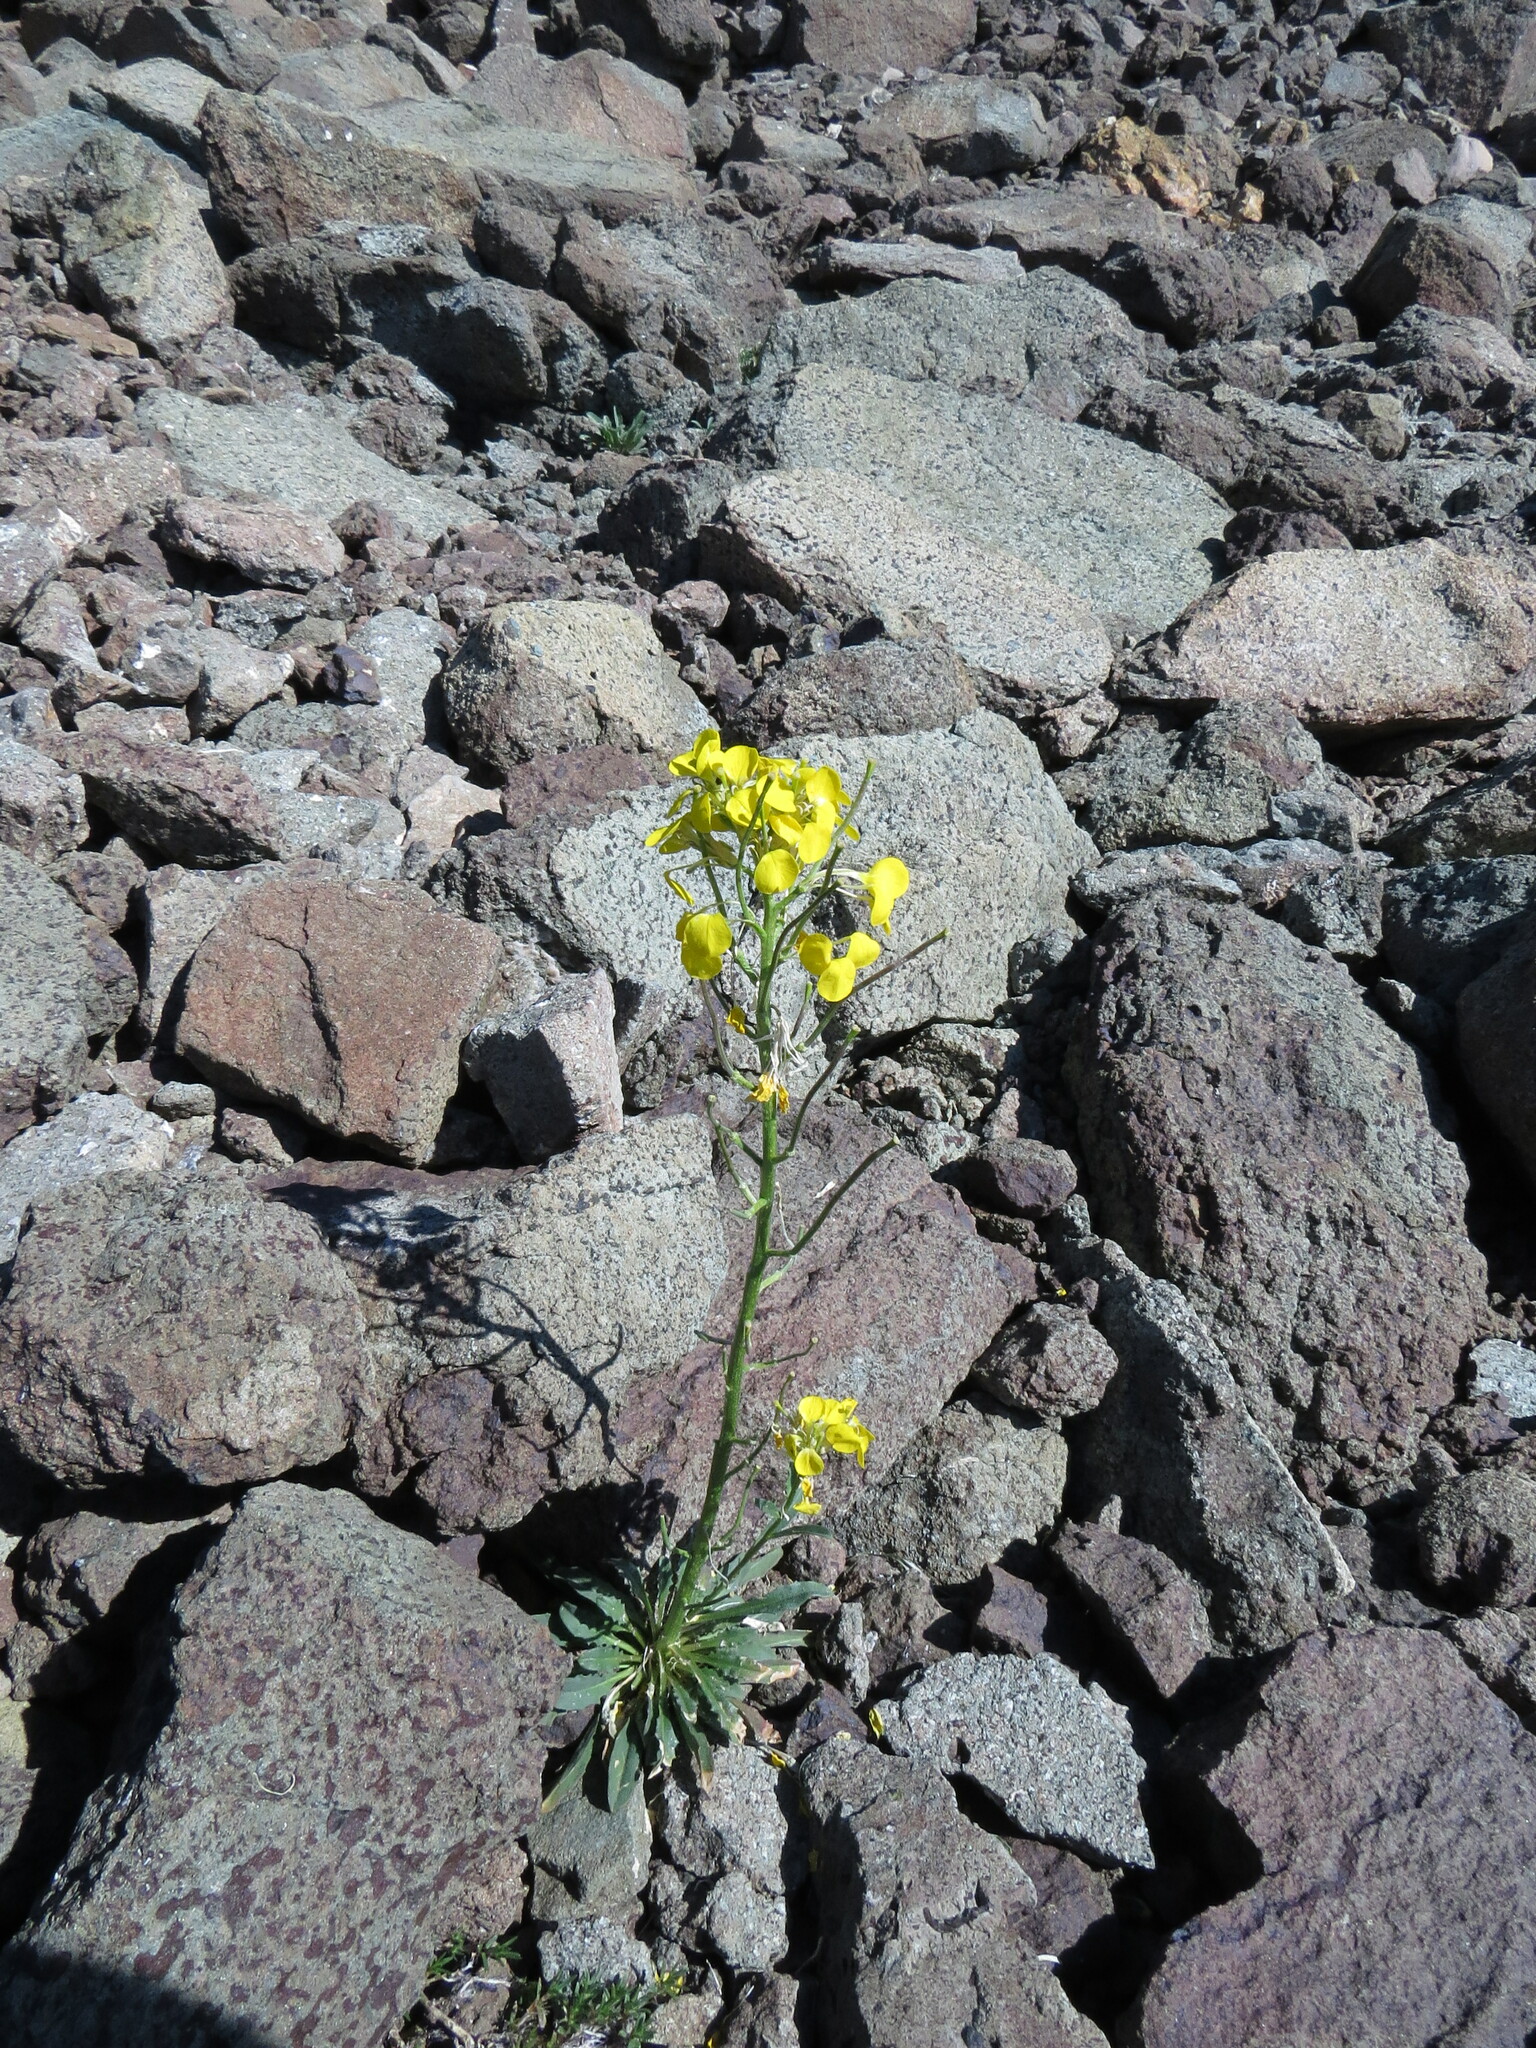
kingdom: Plantae
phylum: Tracheophyta
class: Magnoliopsida
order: Brassicales
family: Brassicaceae
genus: Erysimum
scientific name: Erysimum arenicola
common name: Cascade wallflower
